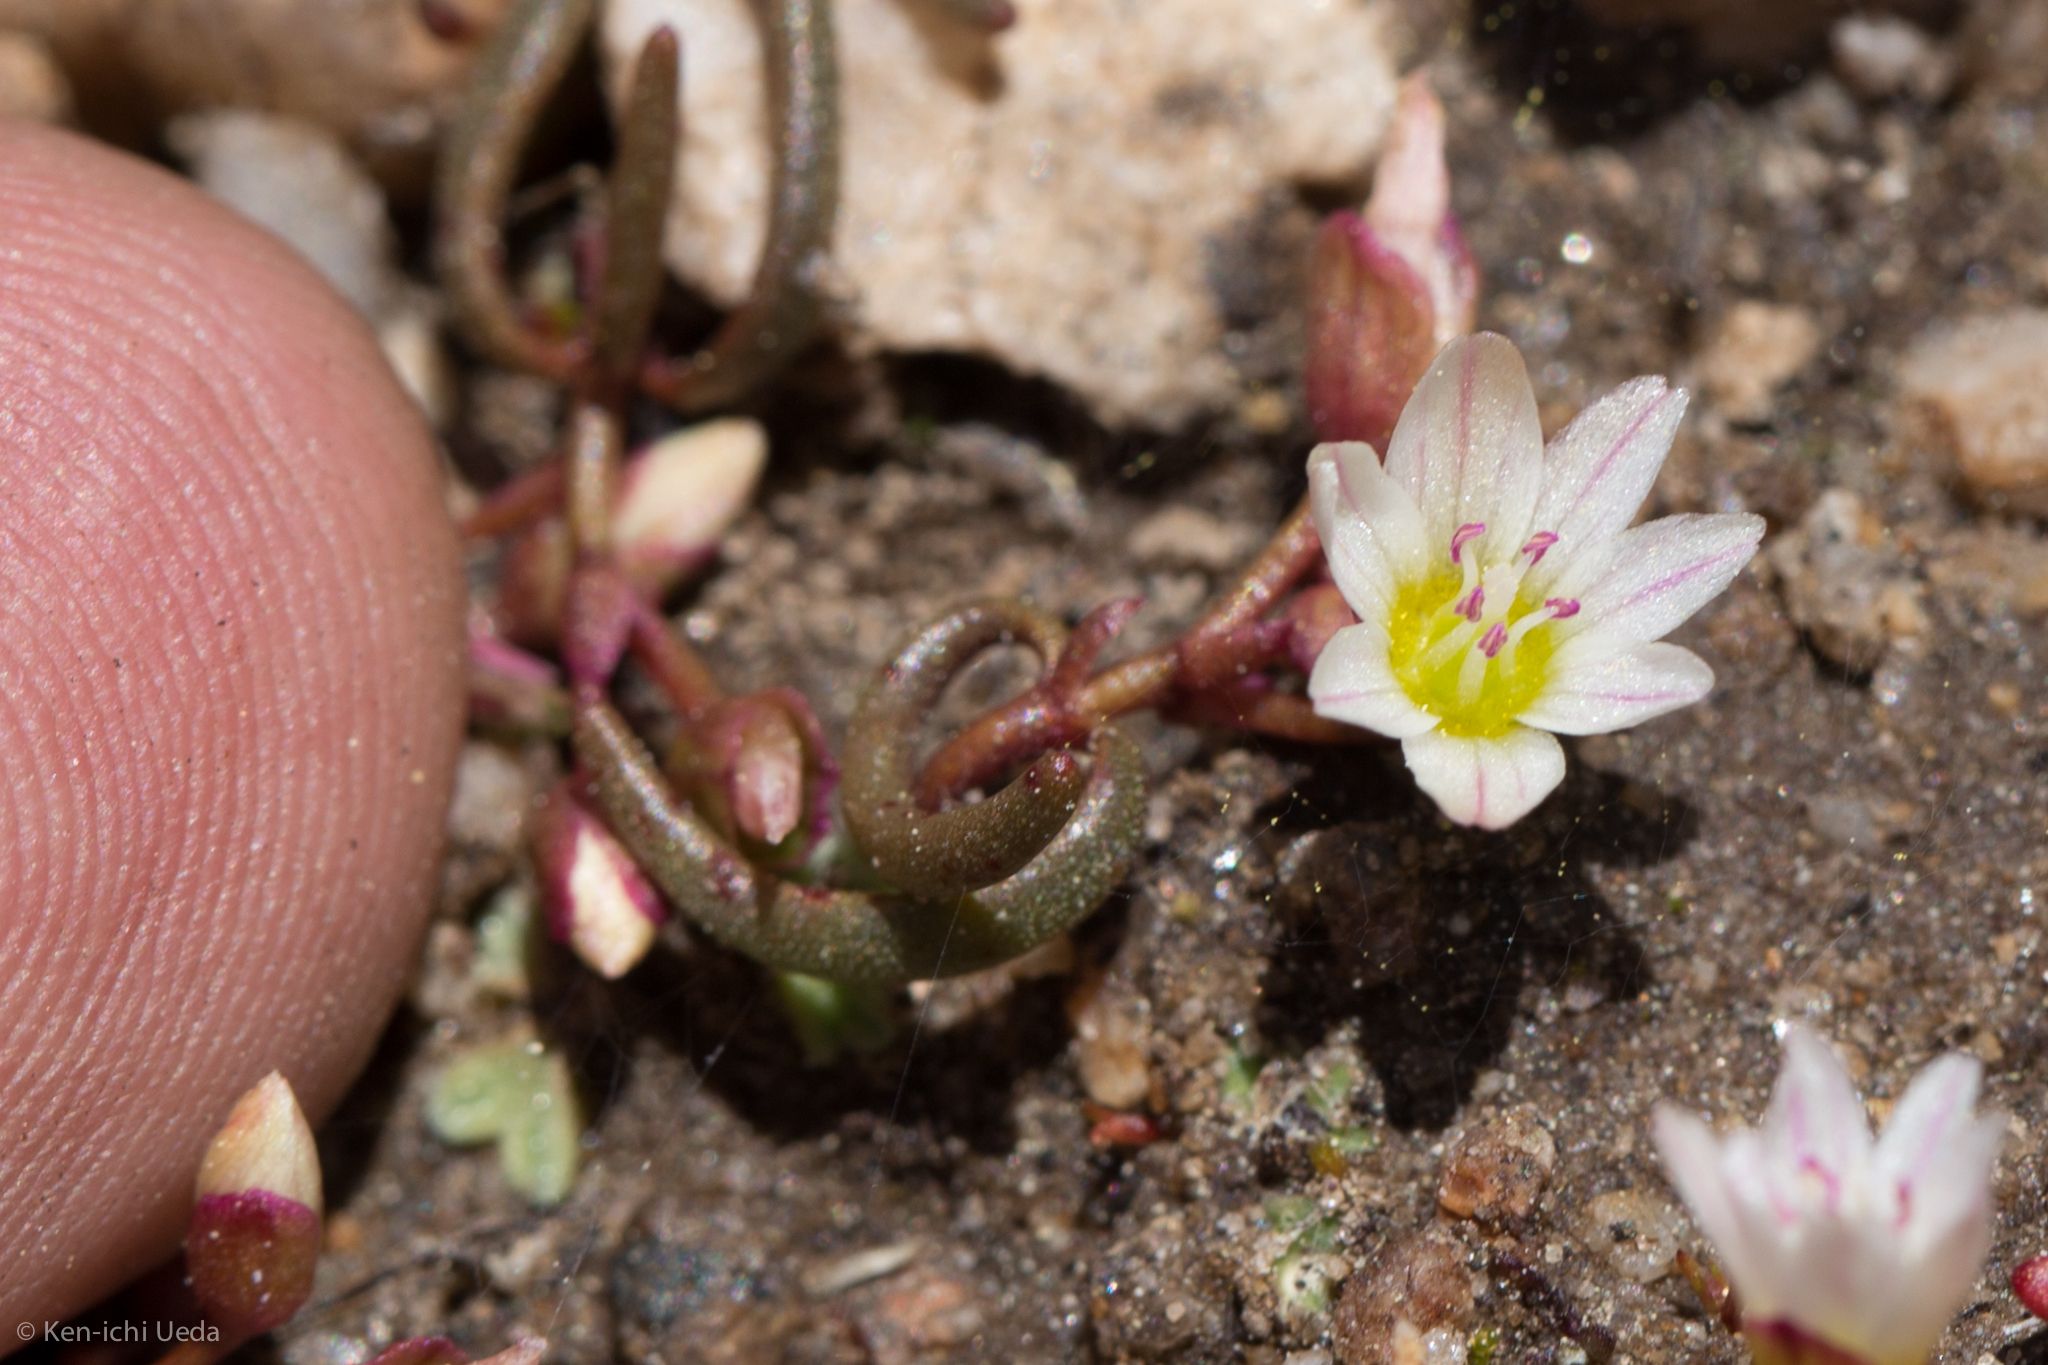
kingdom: Plantae
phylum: Tracheophyta
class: Magnoliopsida
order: Caryophyllales
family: Montiaceae
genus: Lewisia
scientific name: Lewisia triphylla
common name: Three-leaved bitterroot
